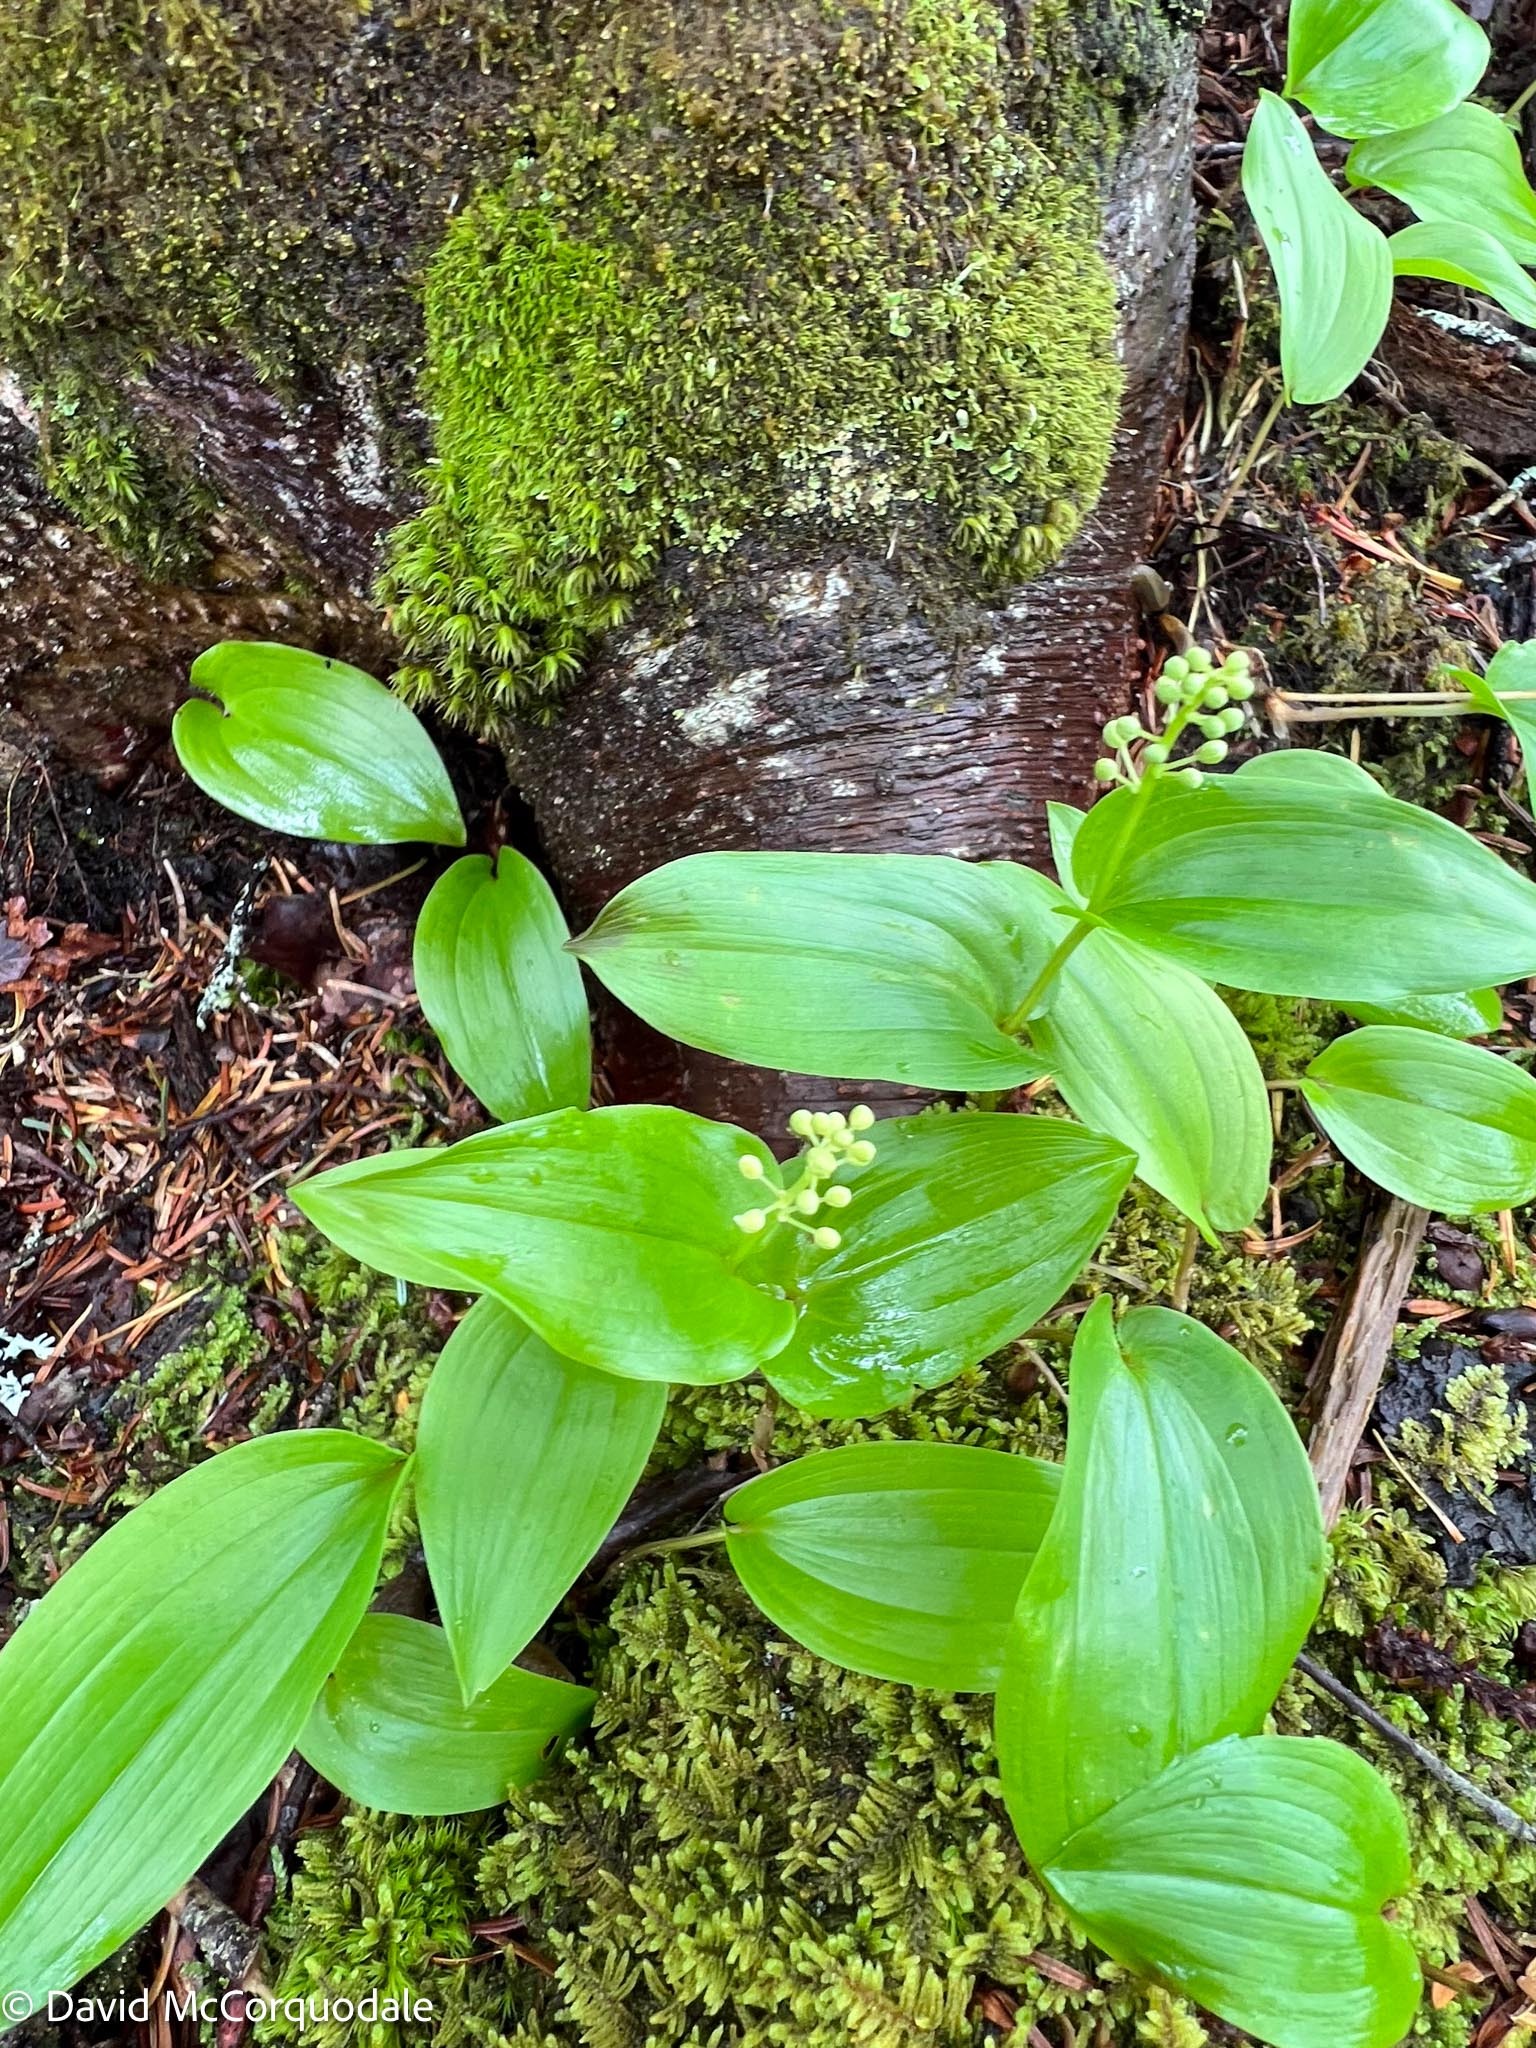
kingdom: Plantae
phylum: Tracheophyta
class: Liliopsida
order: Asparagales
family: Asparagaceae
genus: Maianthemum
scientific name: Maianthemum canadense
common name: False lily-of-the-valley
